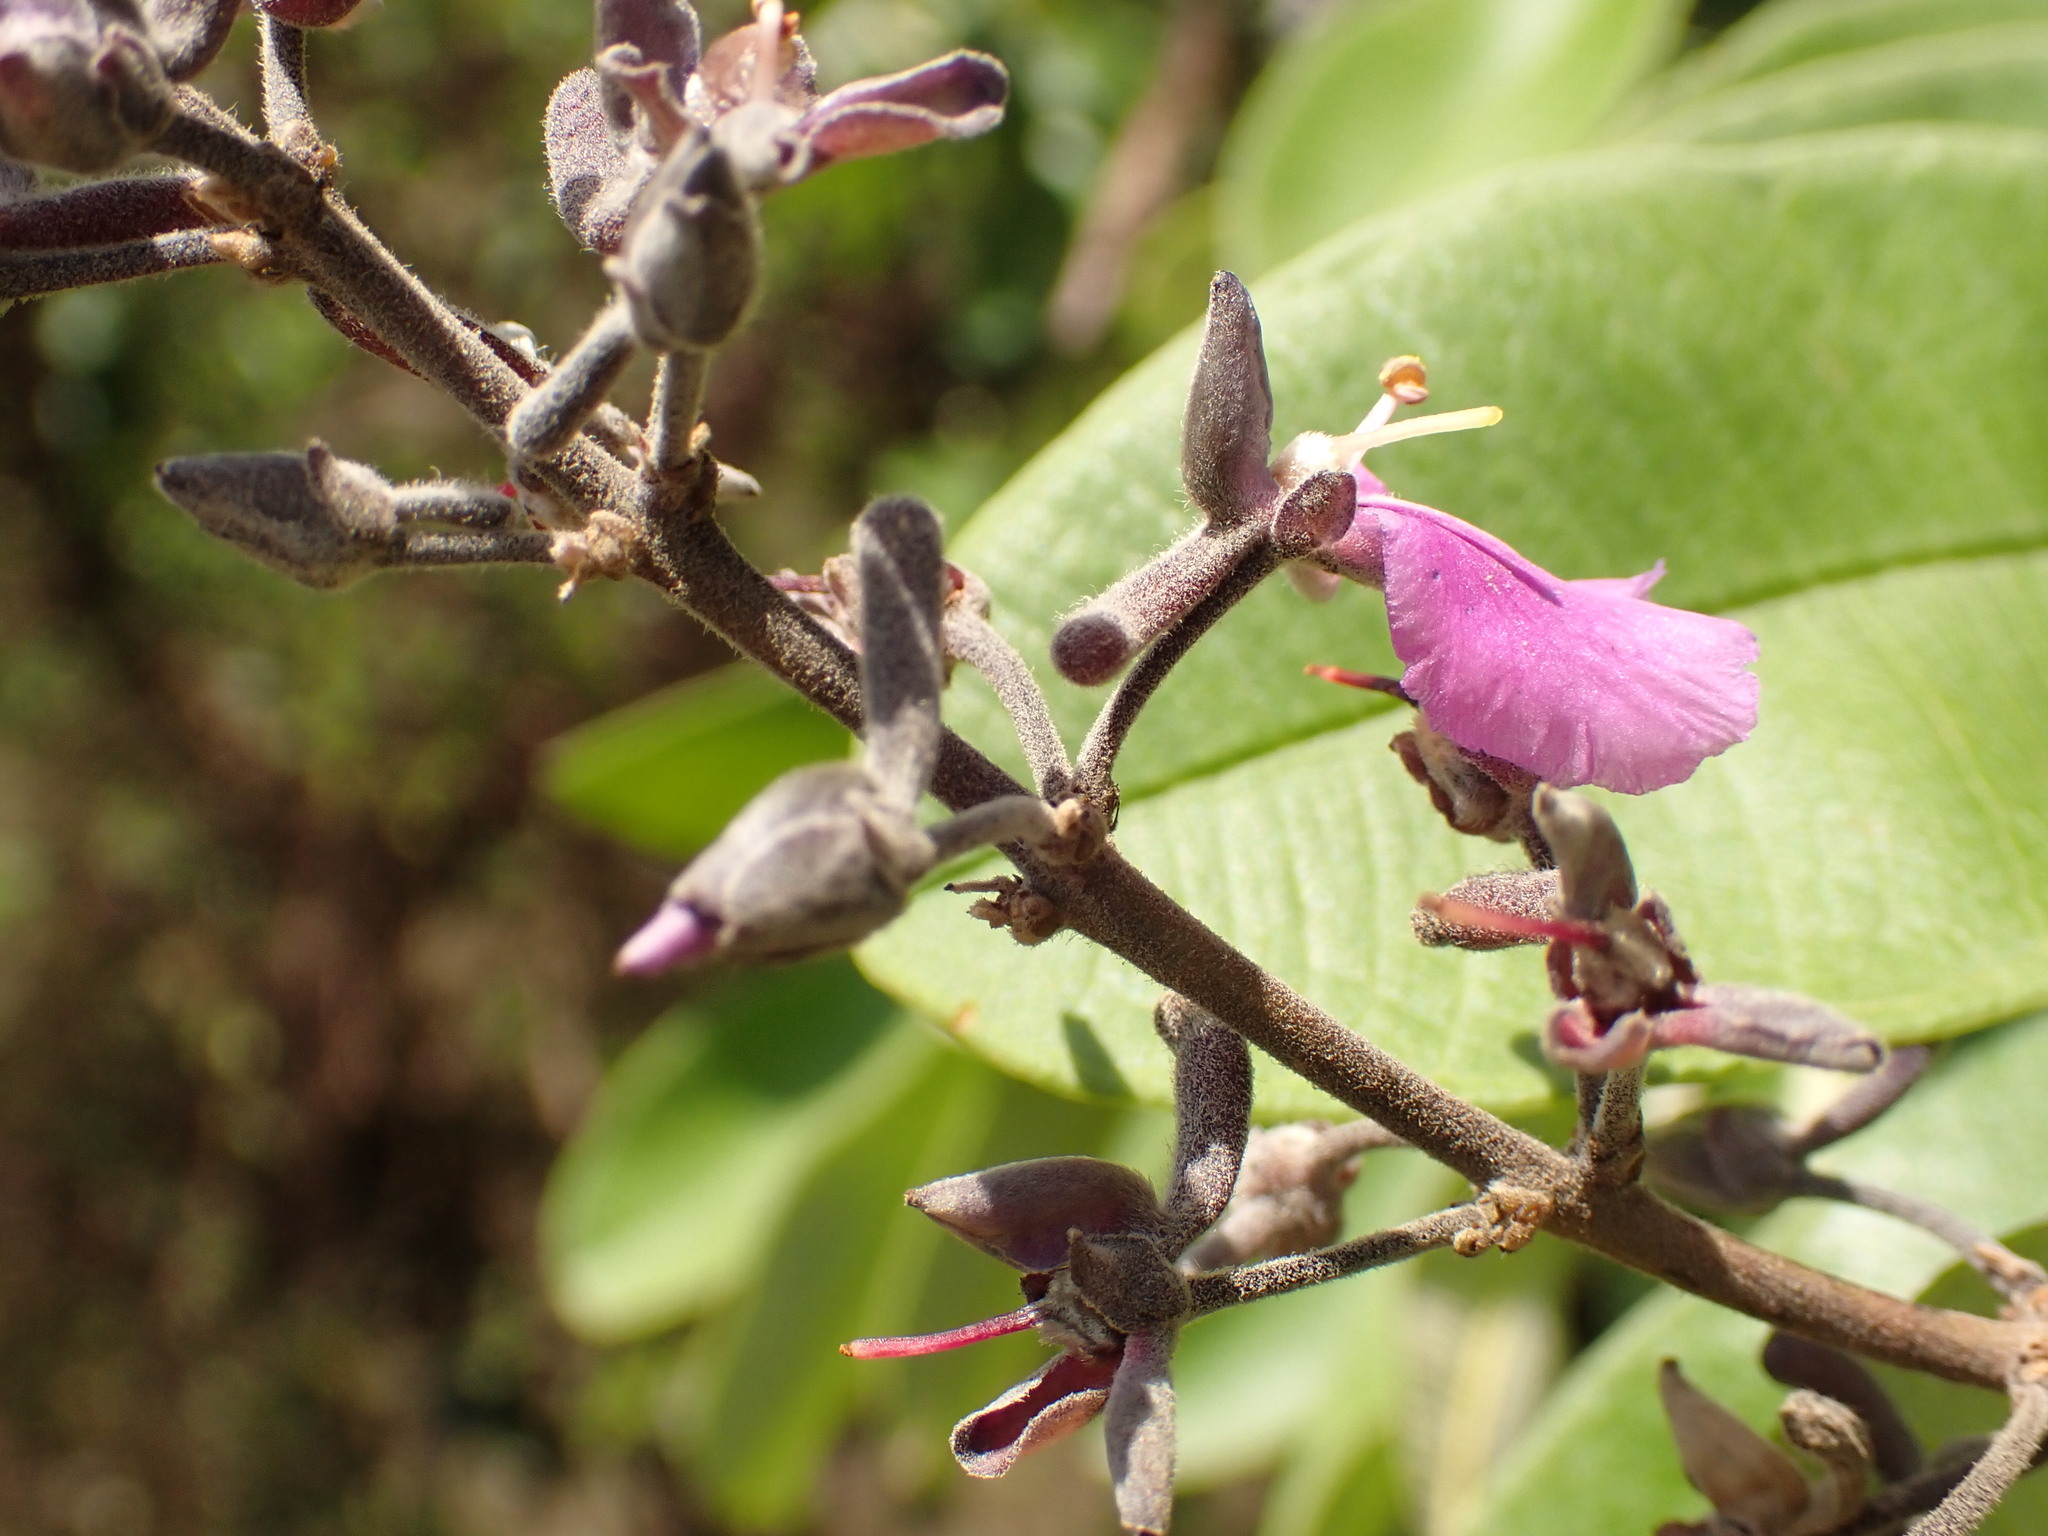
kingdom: Plantae
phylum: Tracheophyta
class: Magnoliopsida
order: Myrtales
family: Vochysiaceae
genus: Qualea
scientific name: Qualea parviflora
